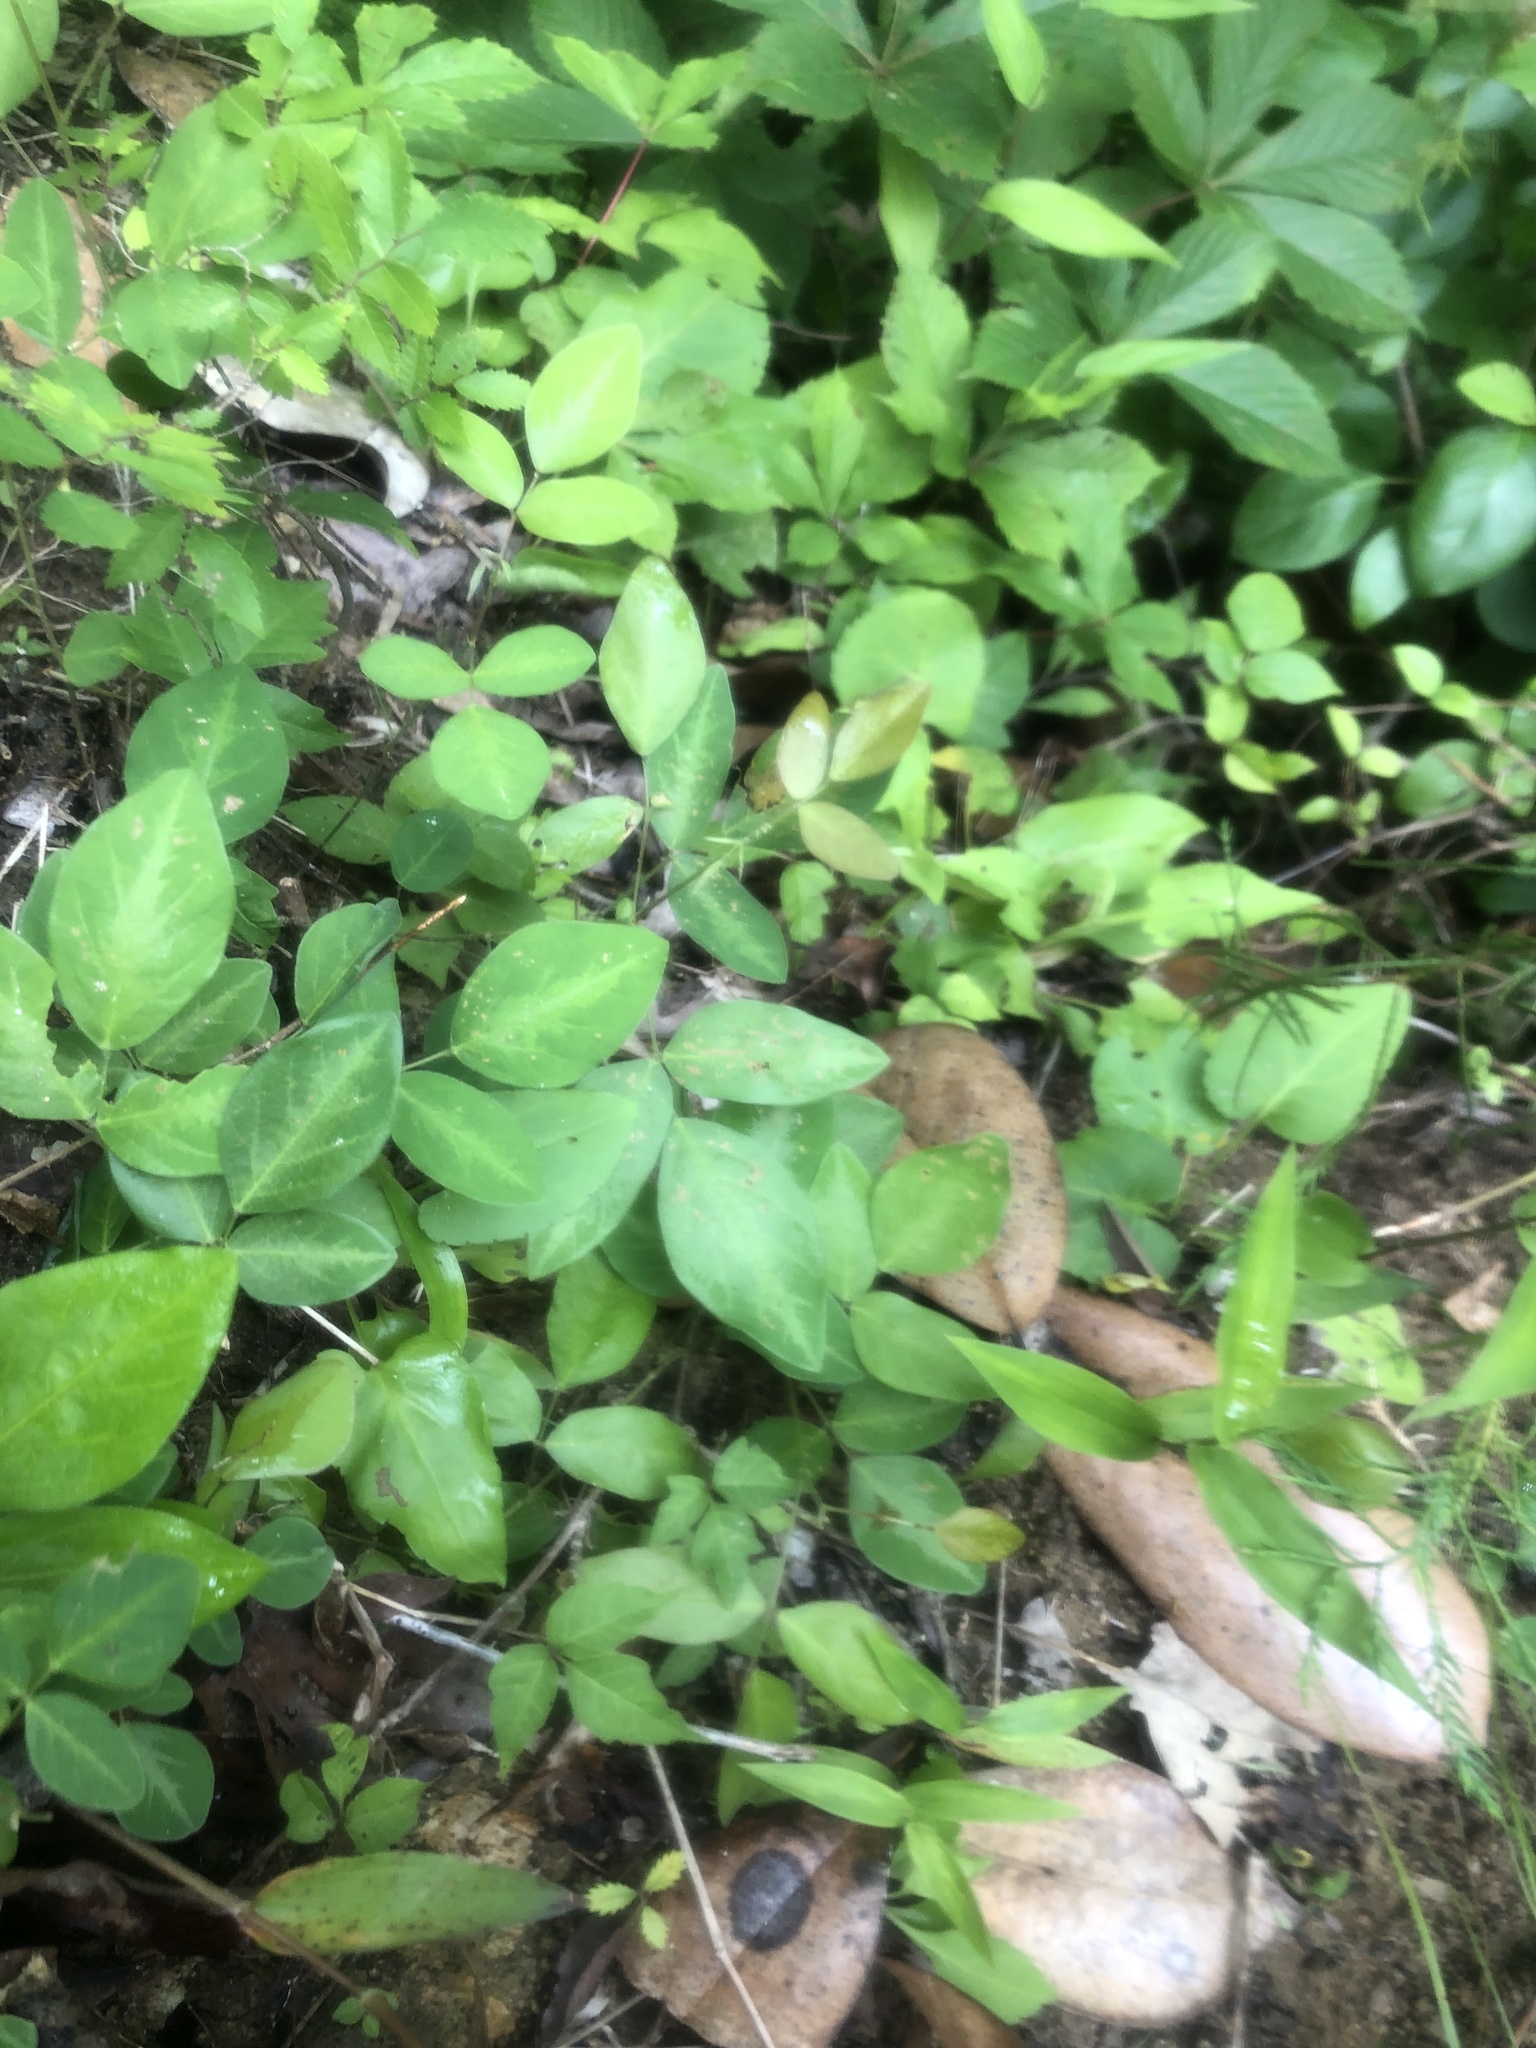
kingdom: Plantae
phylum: Tracheophyta
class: Magnoliopsida
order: Fabales
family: Fabaceae
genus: Desmodium
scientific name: Desmodium perplexum
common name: Perplexed tick trefoil
